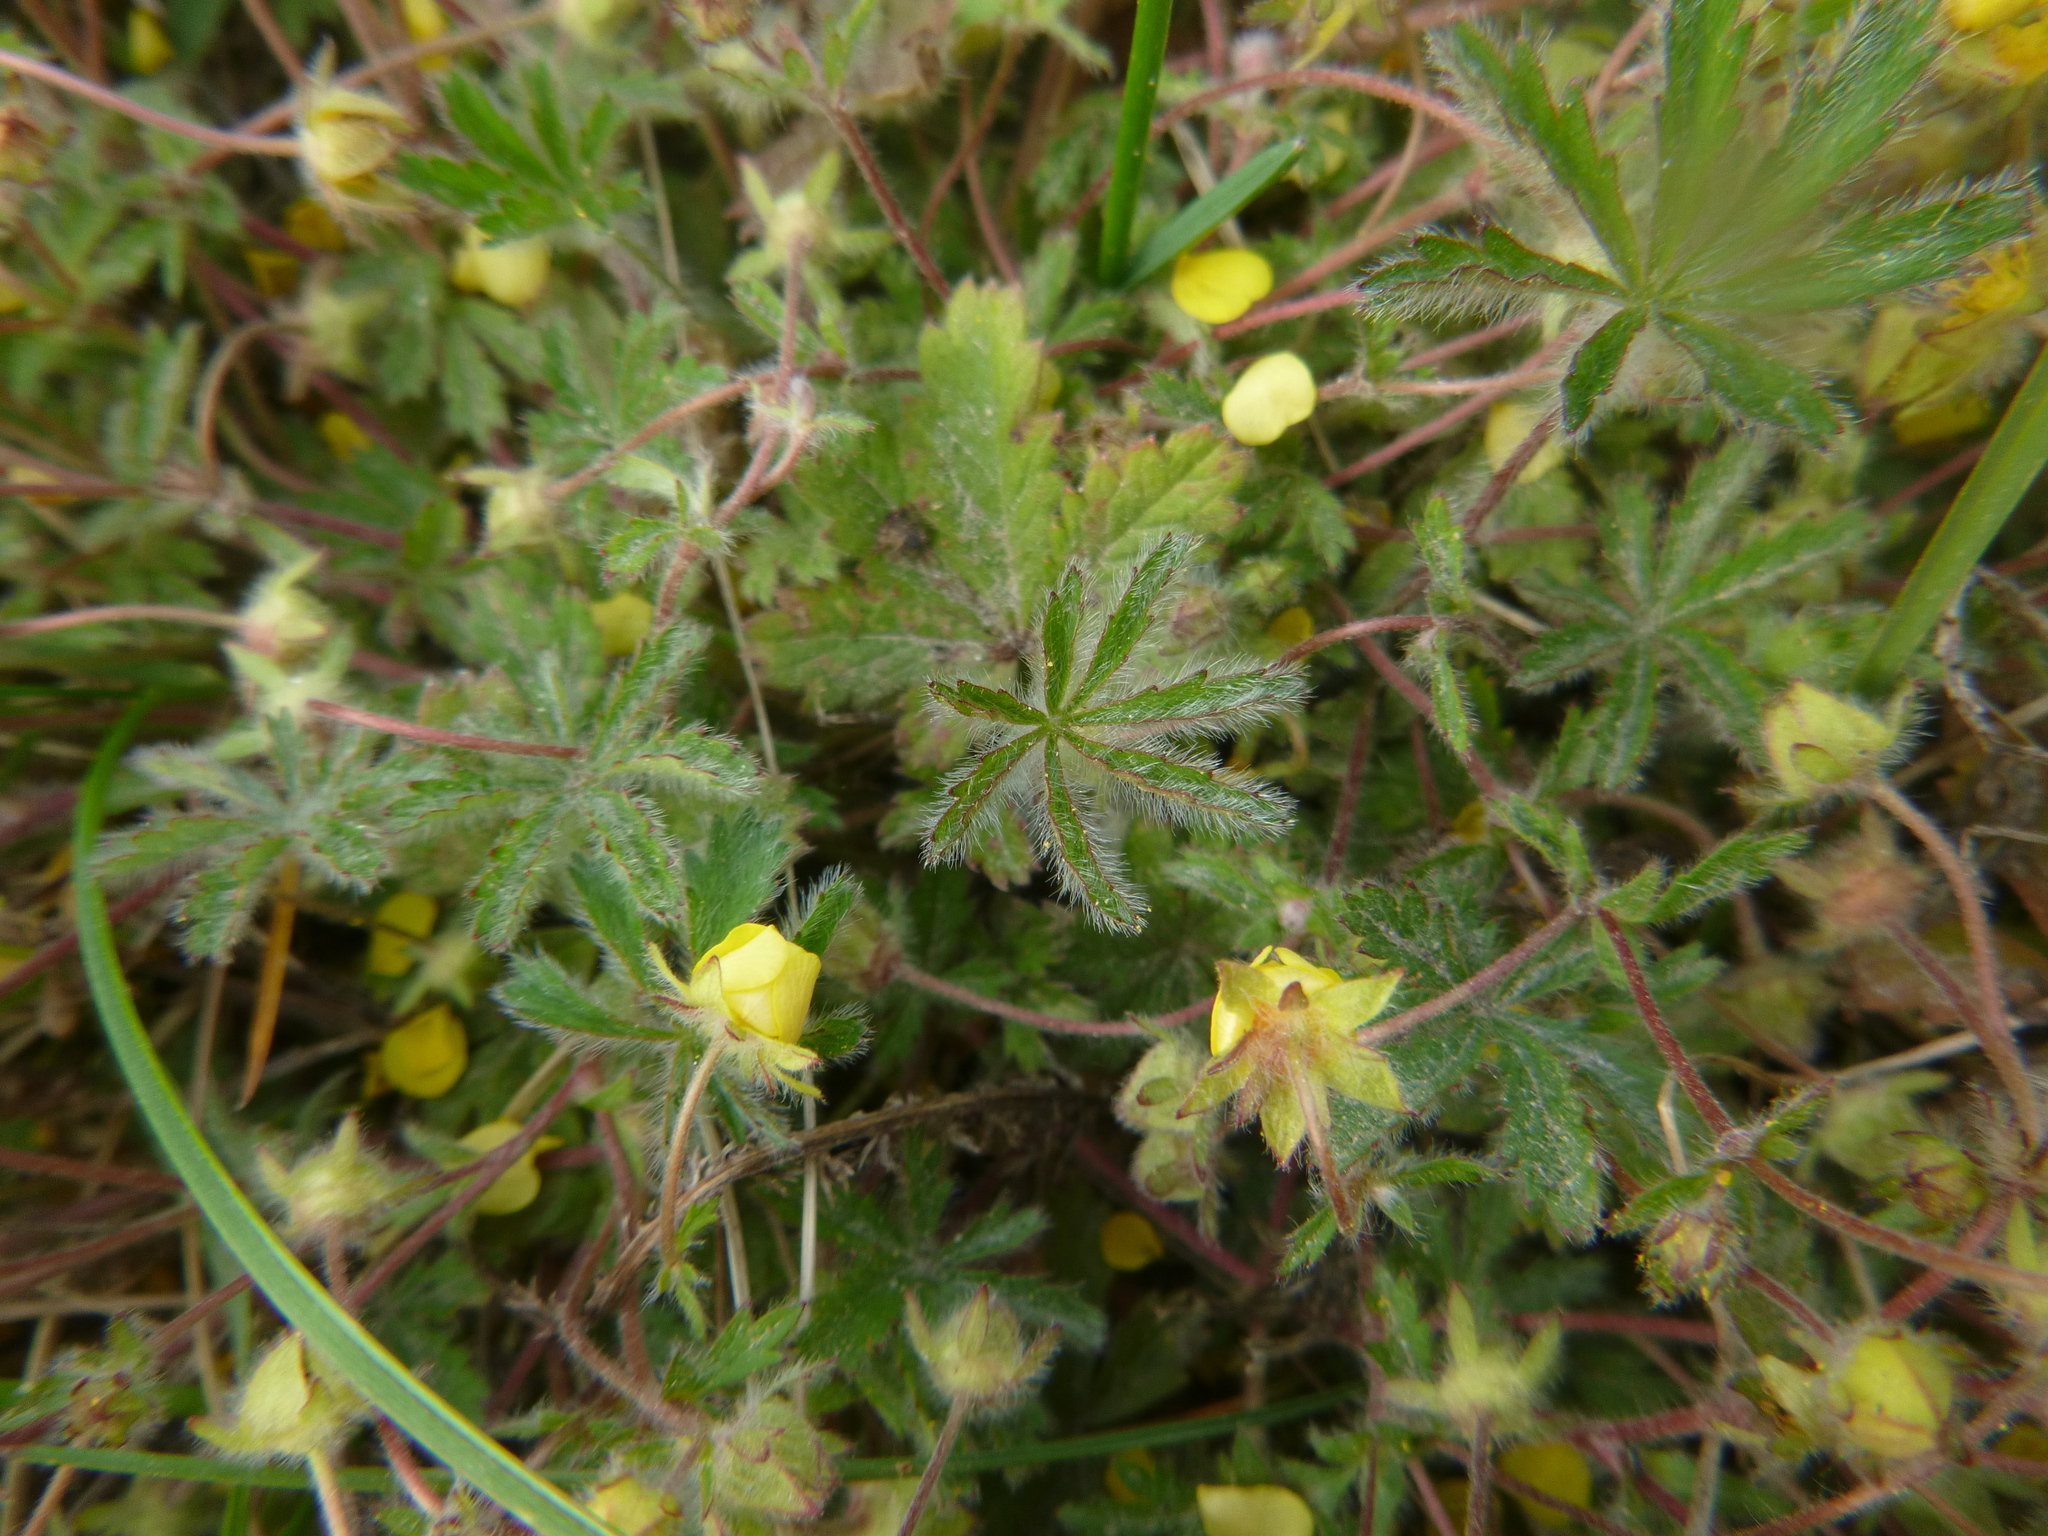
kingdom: Plantae
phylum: Tracheophyta
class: Magnoliopsida
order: Rosales
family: Rosaceae
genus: Potentilla
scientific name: Potentilla heptaphylla
